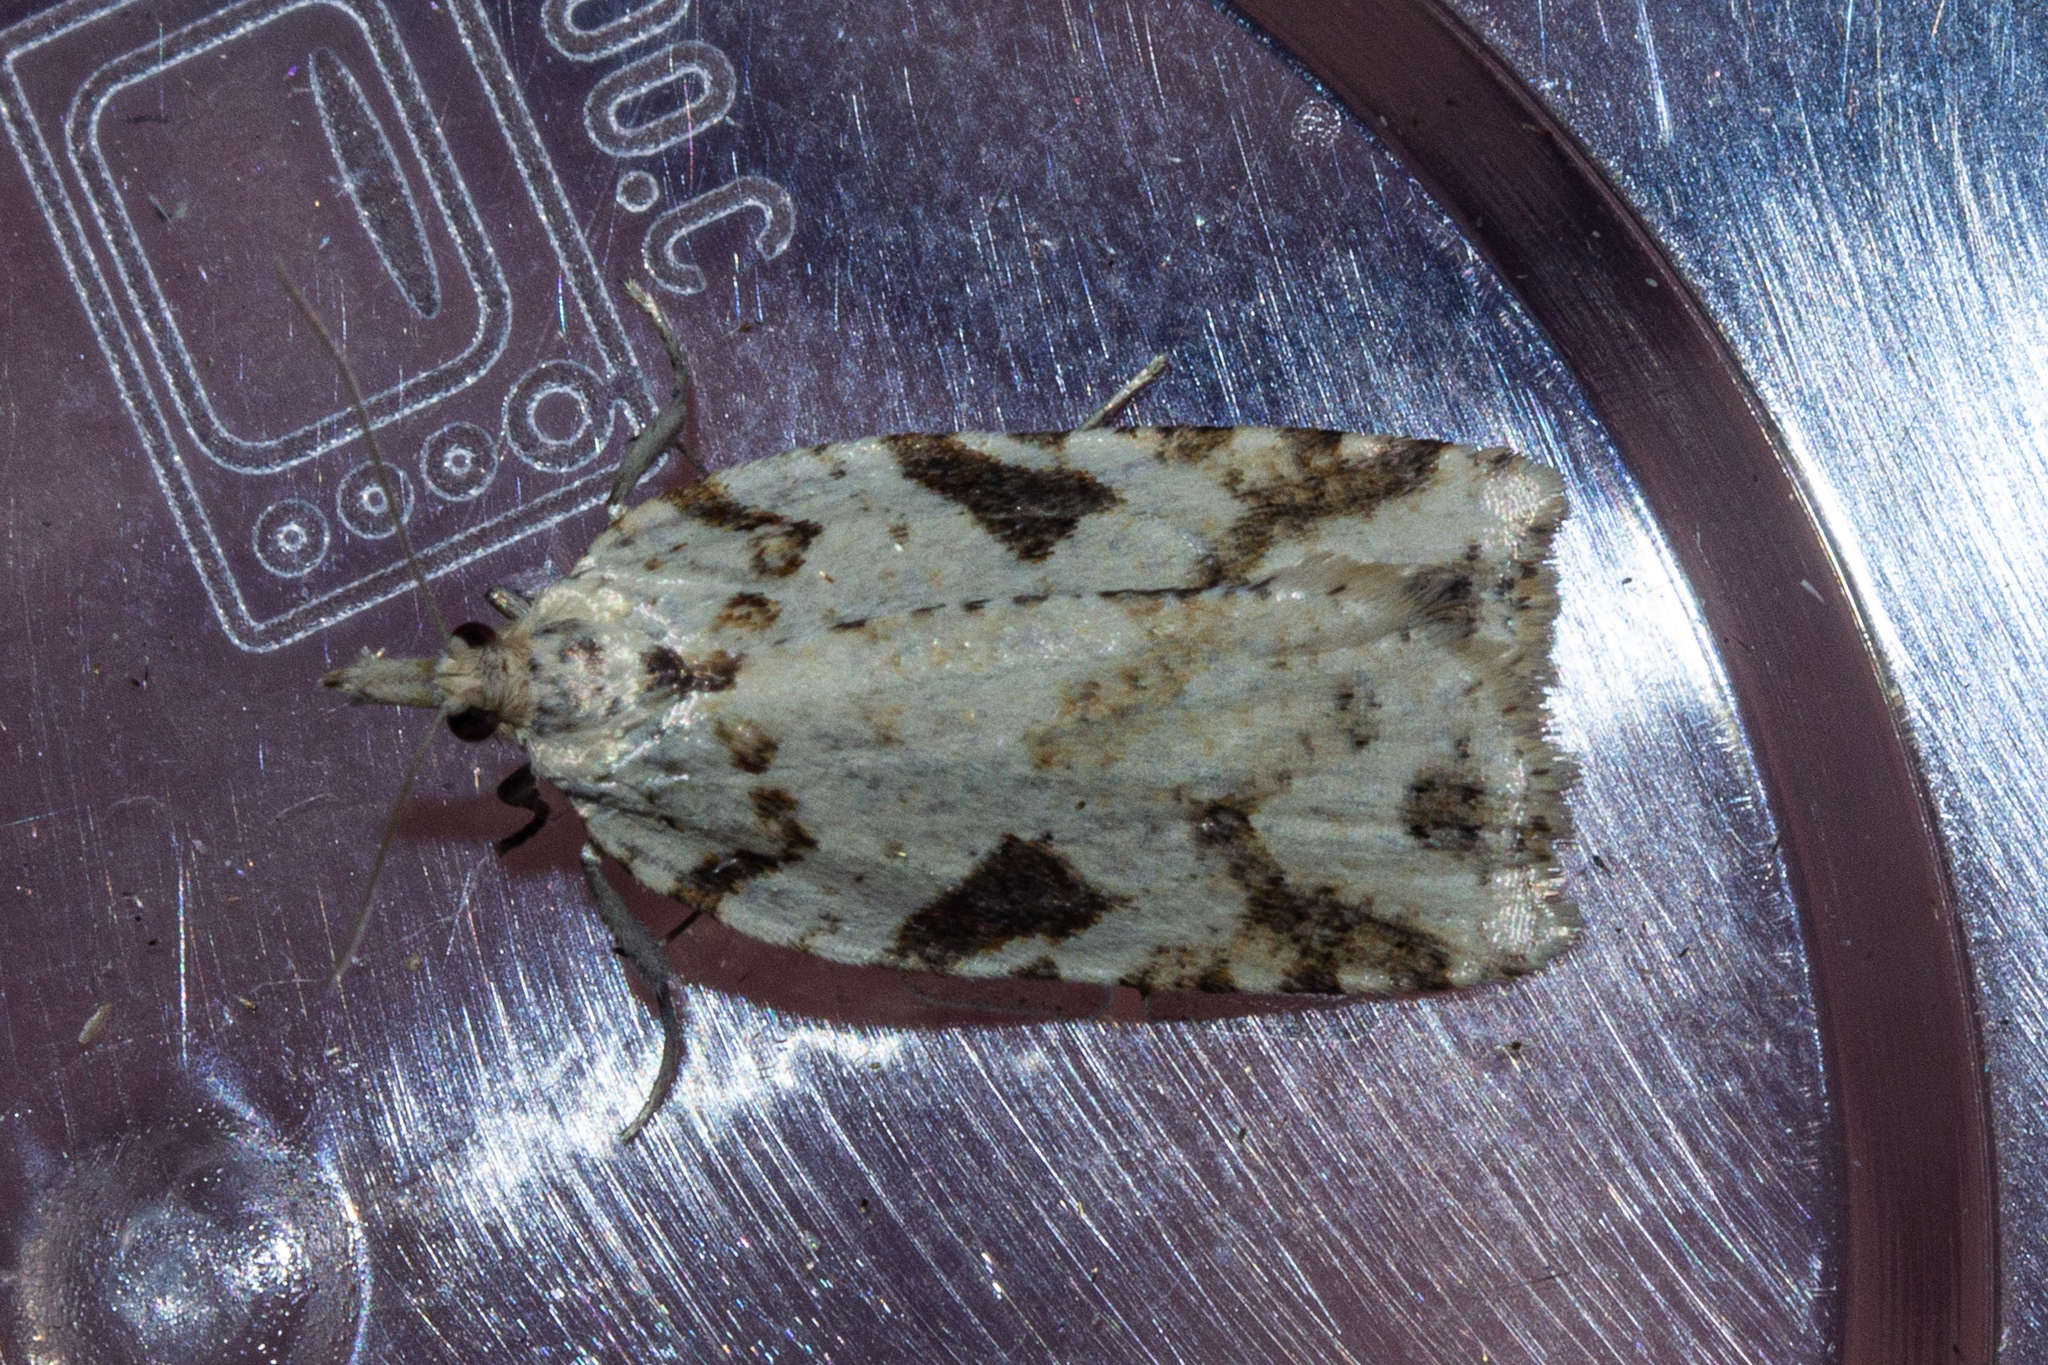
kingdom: Animalia
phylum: Arthropoda
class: Insecta
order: Lepidoptera
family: Tortricidae
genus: Leucotenes
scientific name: Leucotenes coprosmae
